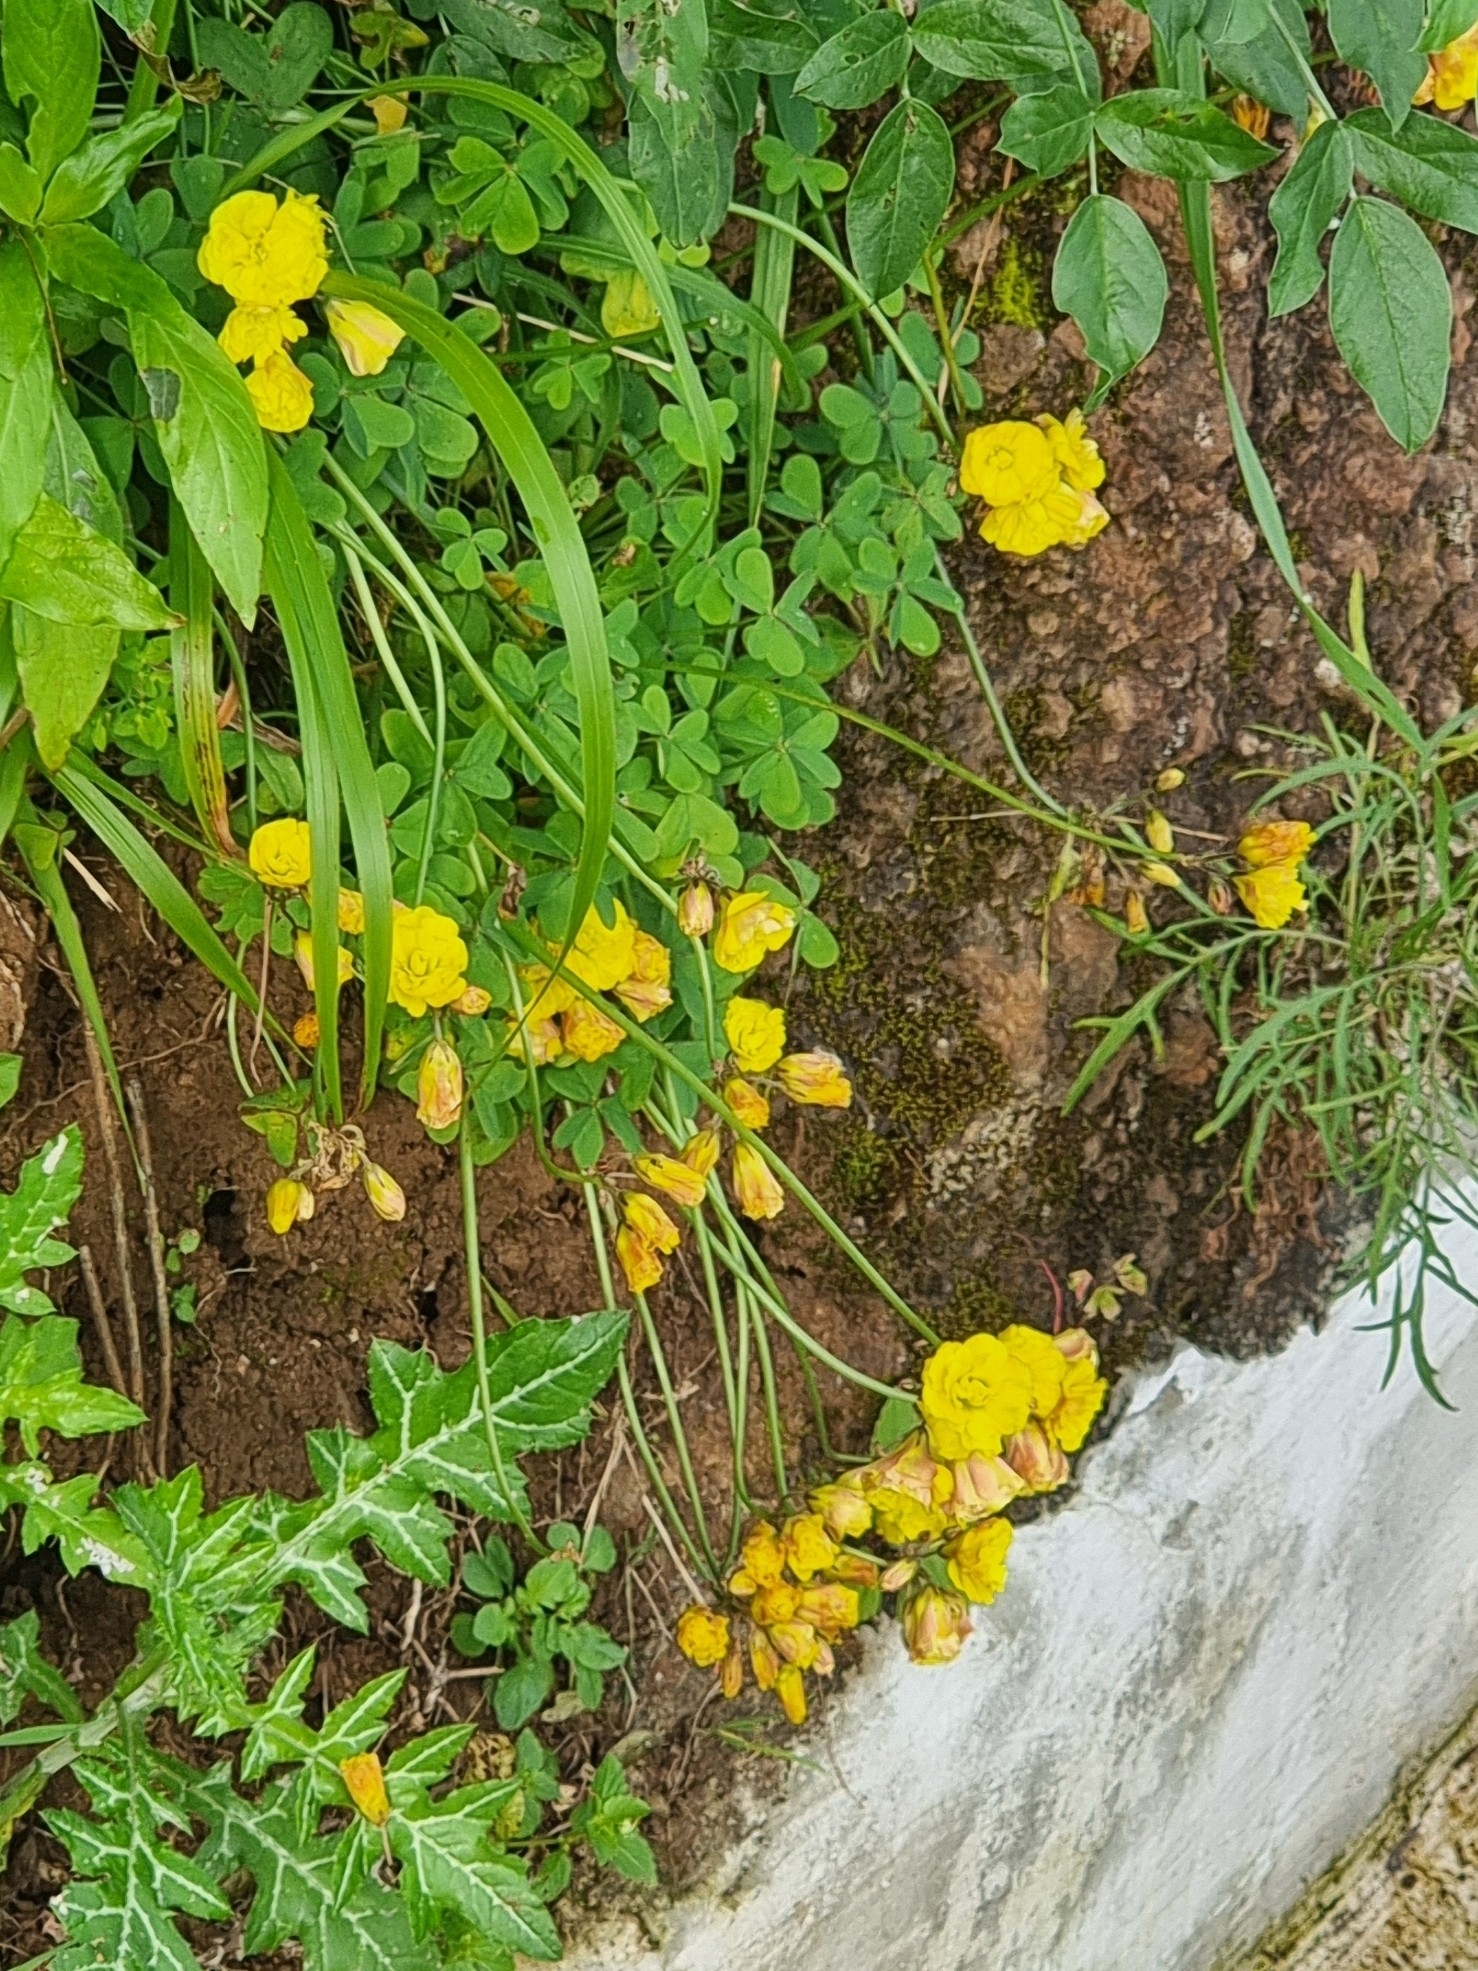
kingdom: Plantae
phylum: Tracheophyta
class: Magnoliopsida
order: Oxalidales
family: Oxalidaceae
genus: Oxalis
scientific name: Oxalis pes-caprae
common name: Bermuda-buttercup
